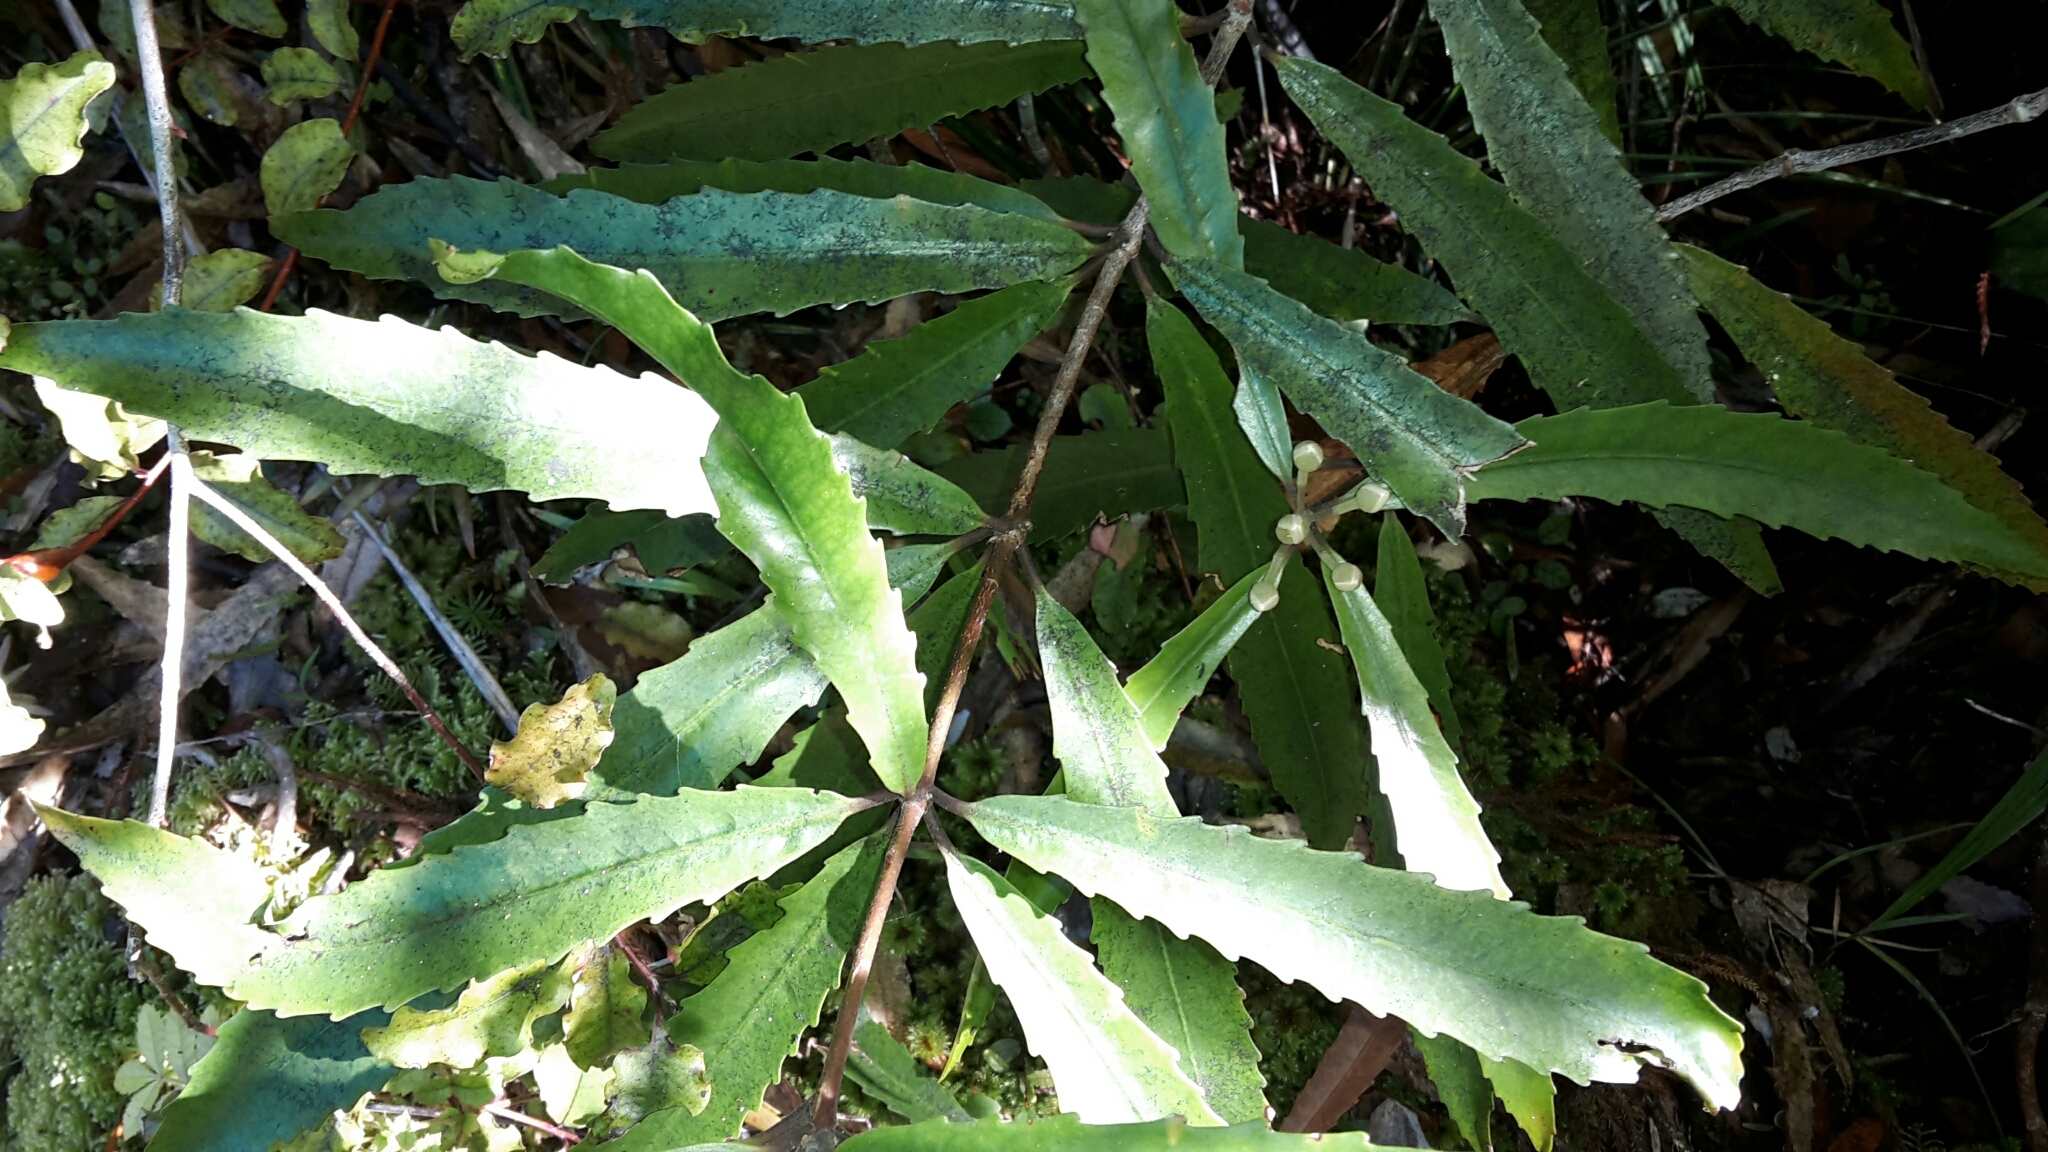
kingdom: Plantae
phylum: Tracheophyta
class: Magnoliopsida
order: Crossosomatales
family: Ixerbaceae
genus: Ixerba
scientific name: Ixerba brexioides
